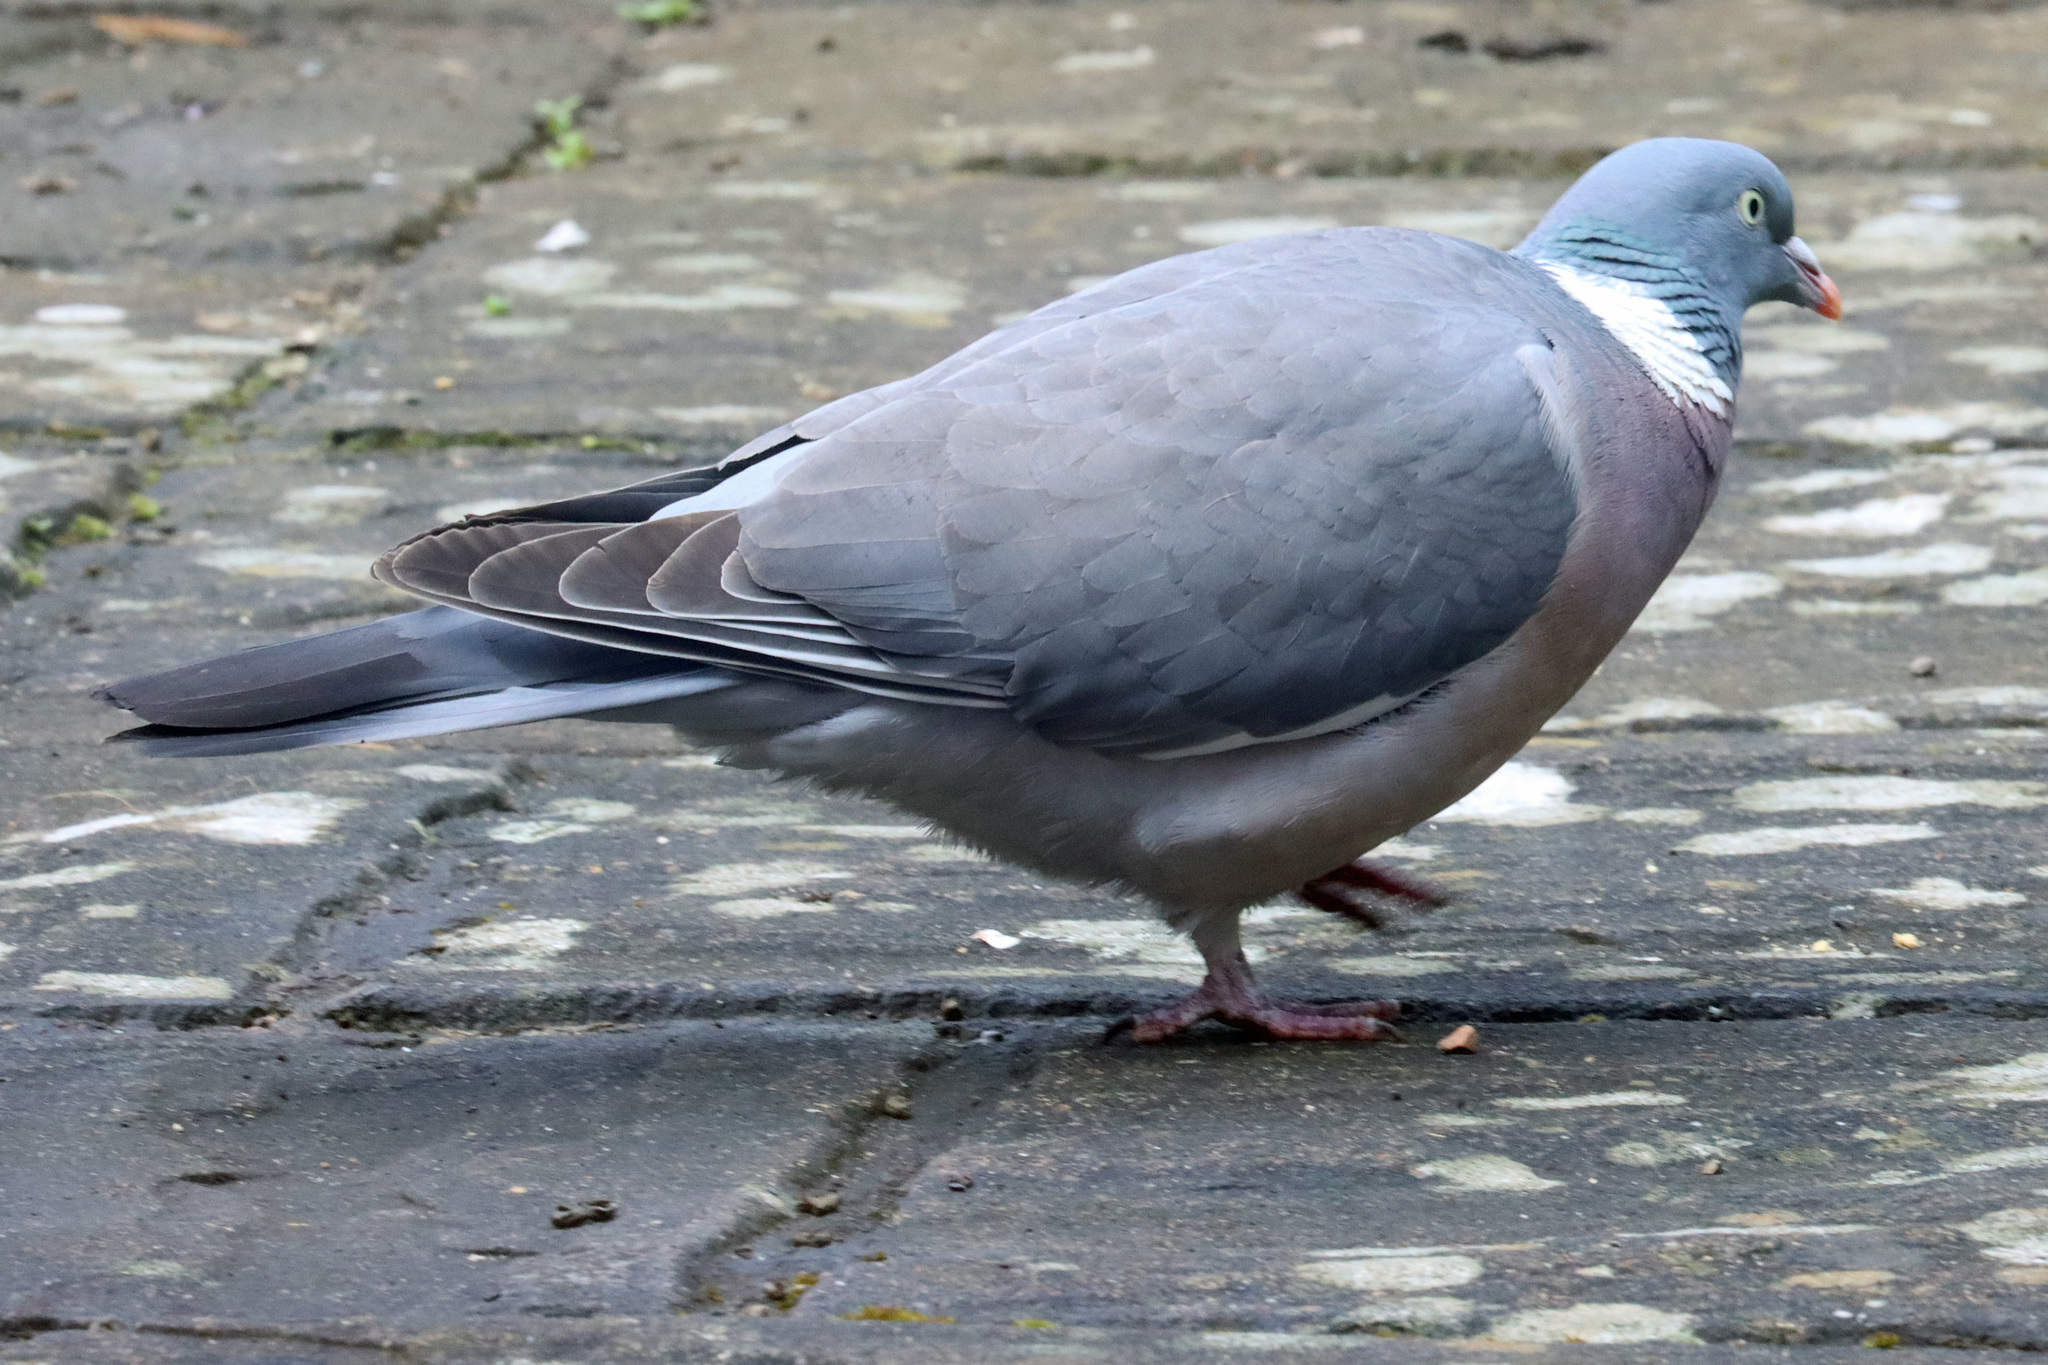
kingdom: Animalia
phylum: Chordata
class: Aves
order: Columbiformes
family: Columbidae
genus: Columba
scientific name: Columba palumbus
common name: Common wood pigeon
